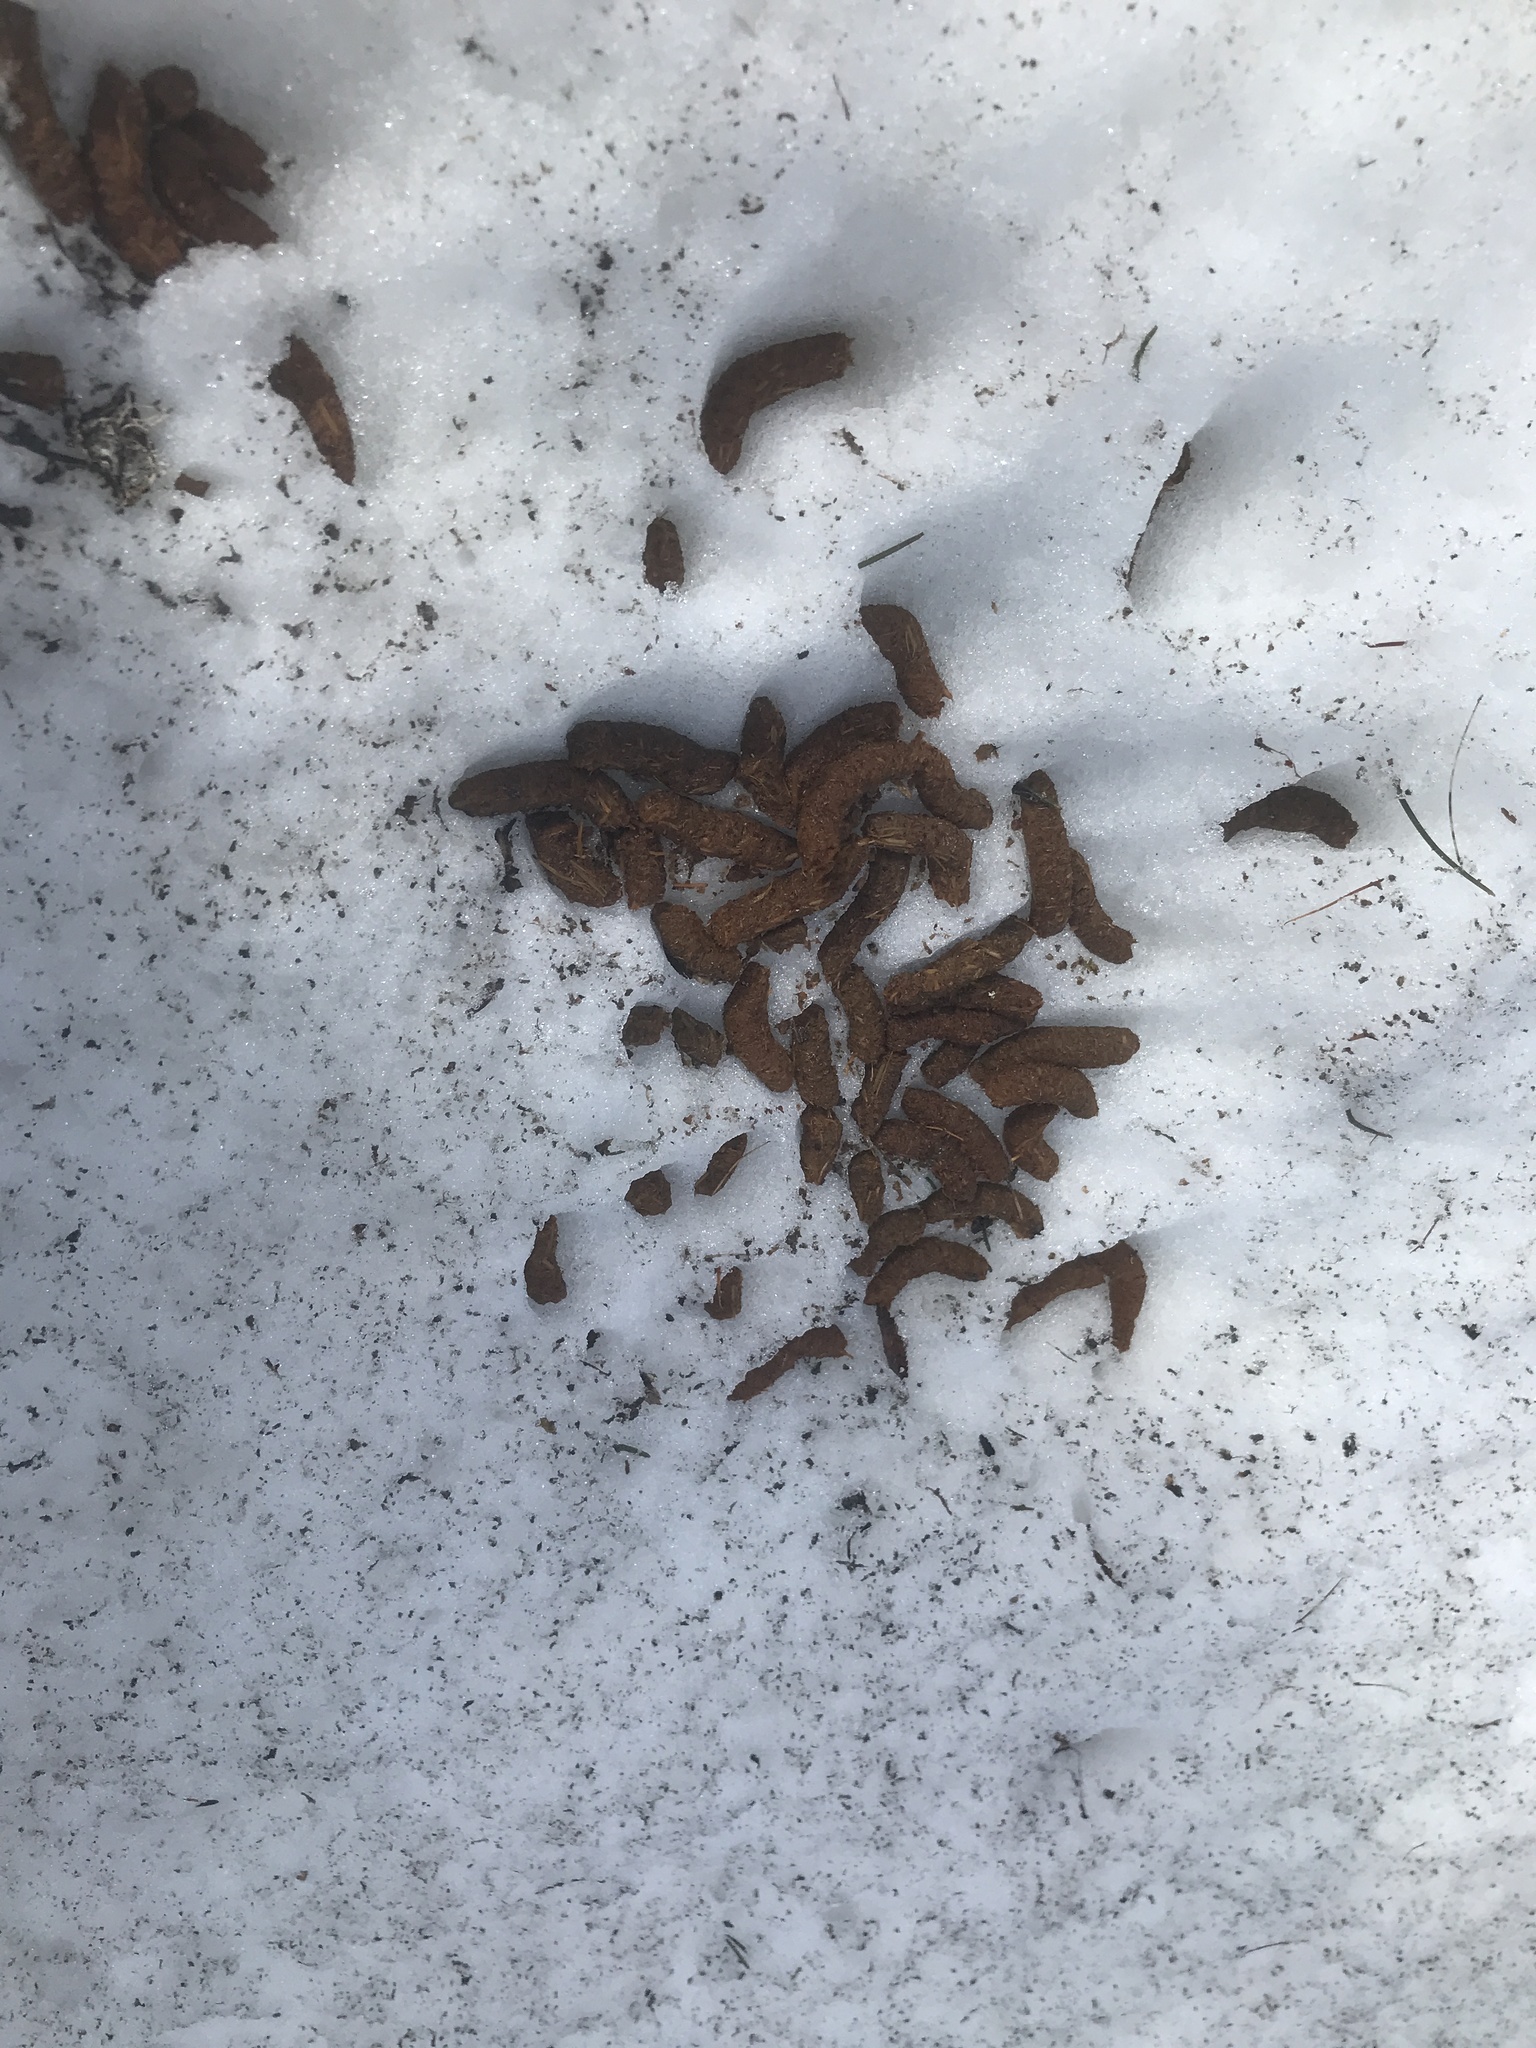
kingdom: Animalia
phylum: Chordata
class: Aves
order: Galliformes
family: Phasianidae
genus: Lyrurus
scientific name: Lyrurus tetrix
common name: Black grouse
